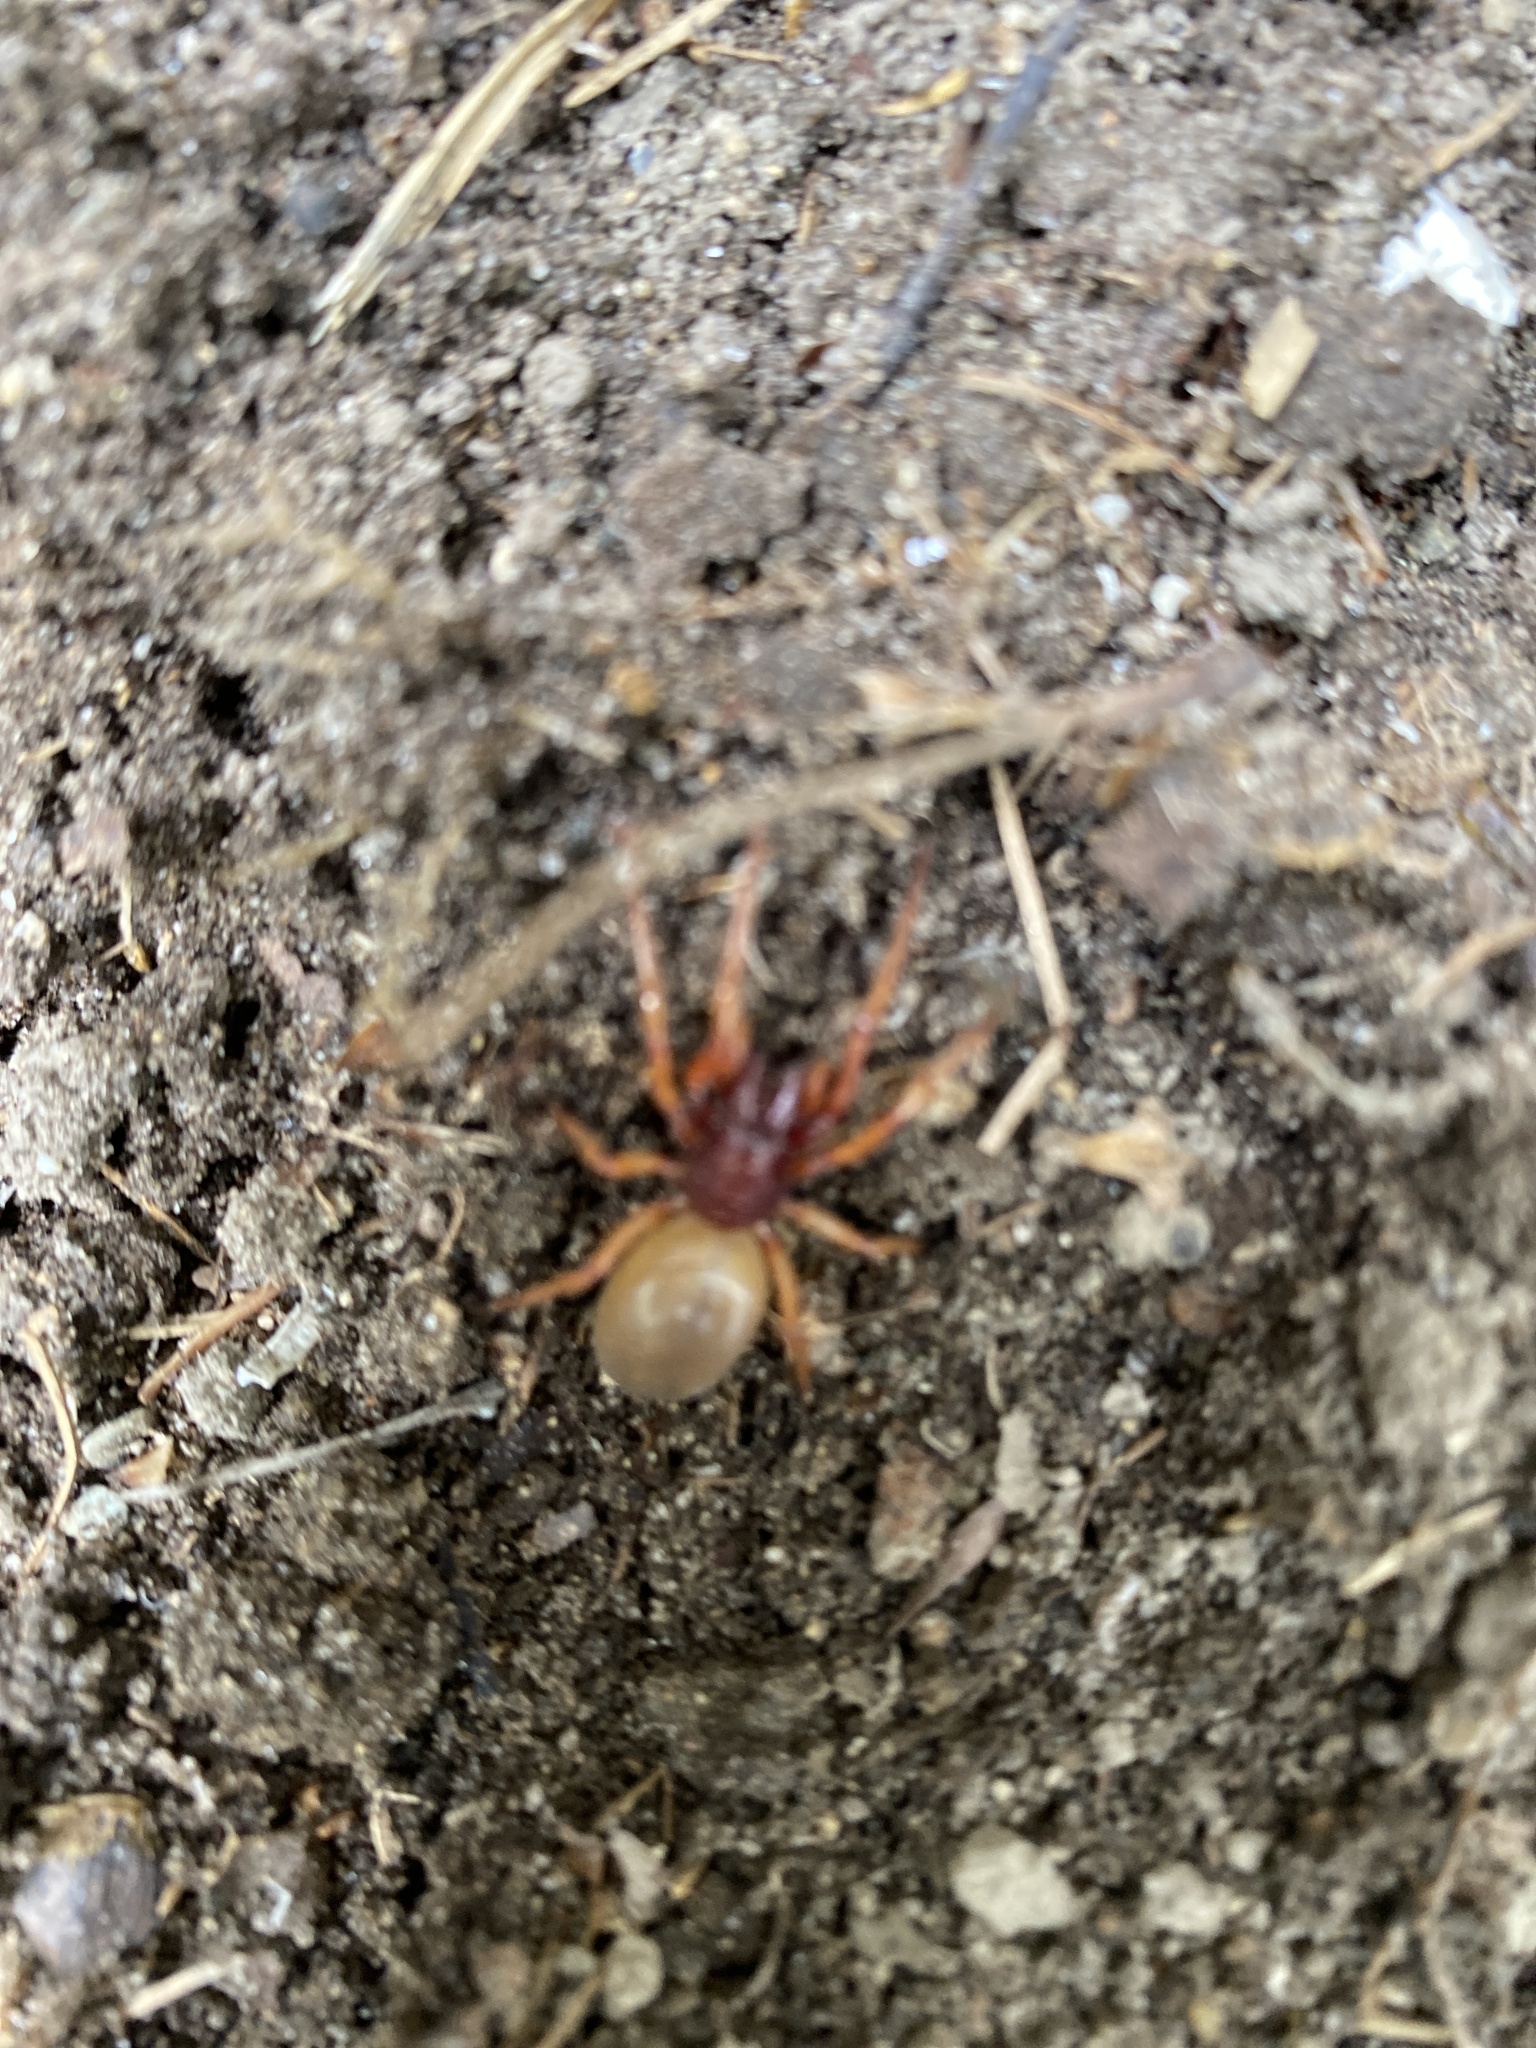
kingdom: Animalia
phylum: Arthropoda
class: Arachnida
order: Araneae
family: Dysderidae
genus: Dysdera
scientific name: Dysdera crocata
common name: Woodlouse spider
